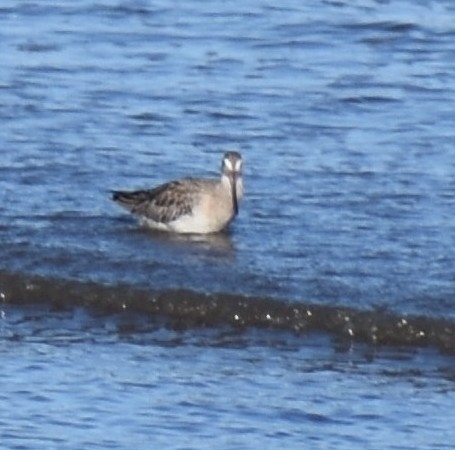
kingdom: Animalia
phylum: Chordata
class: Aves
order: Charadriiformes
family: Scolopacidae
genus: Limosa
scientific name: Limosa lapponica
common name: Bar-tailed godwit
